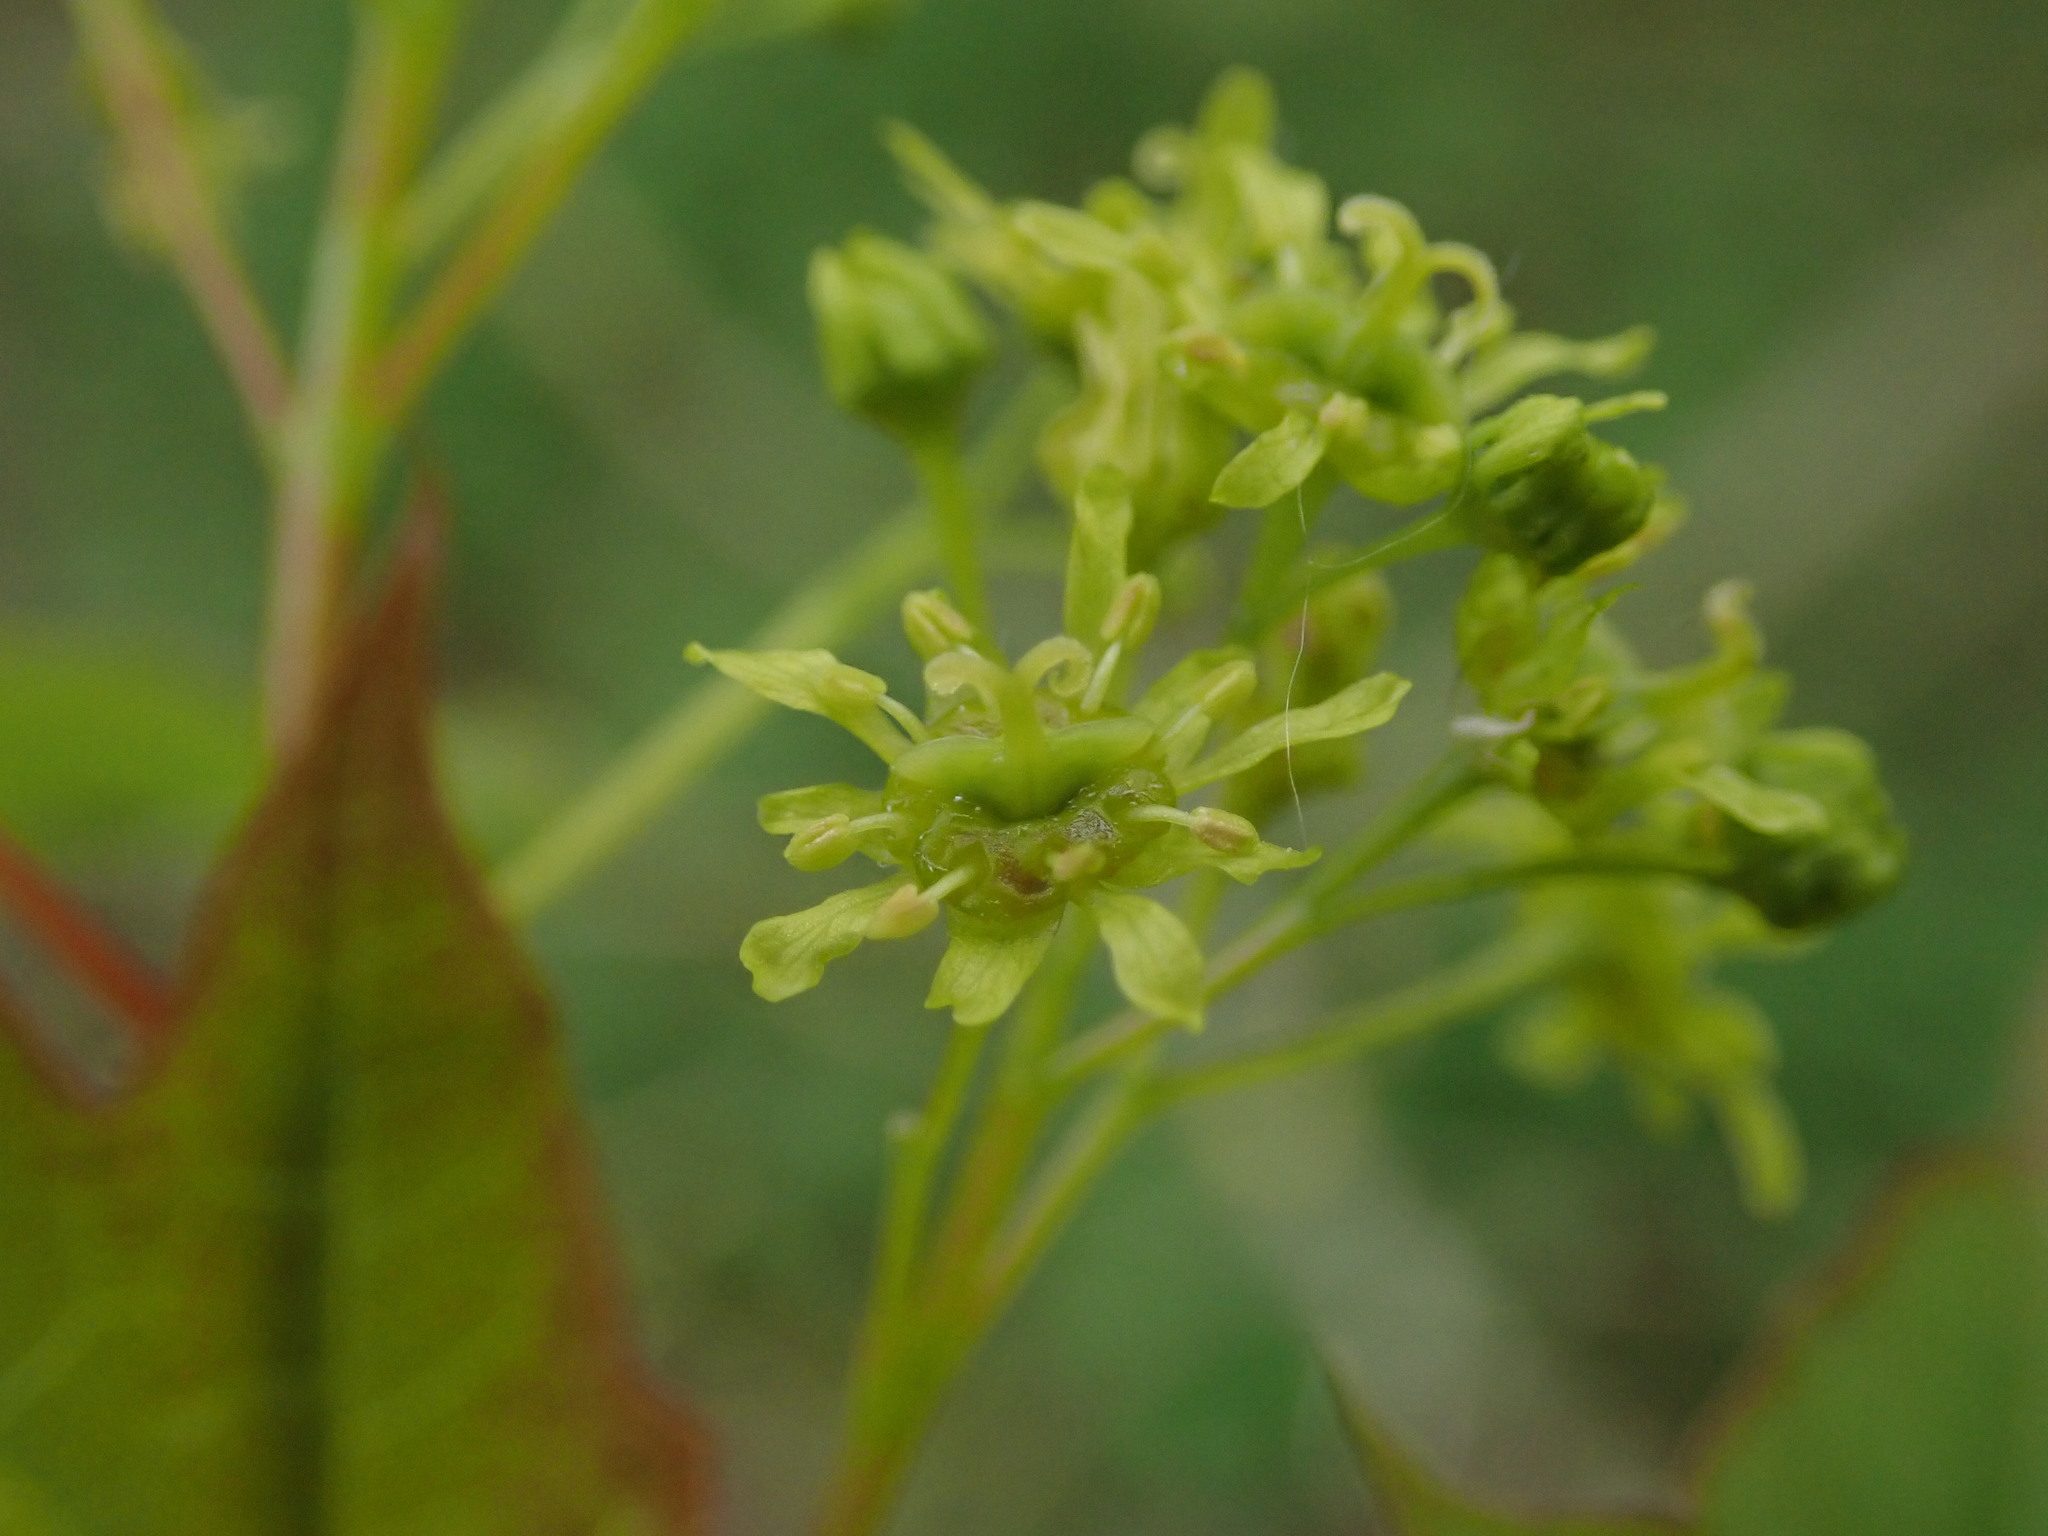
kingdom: Plantae
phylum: Tracheophyta
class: Magnoliopsida
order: Sapindales
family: Sapindaceae
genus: Acer
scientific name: Acer platanoides
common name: Norway maple
